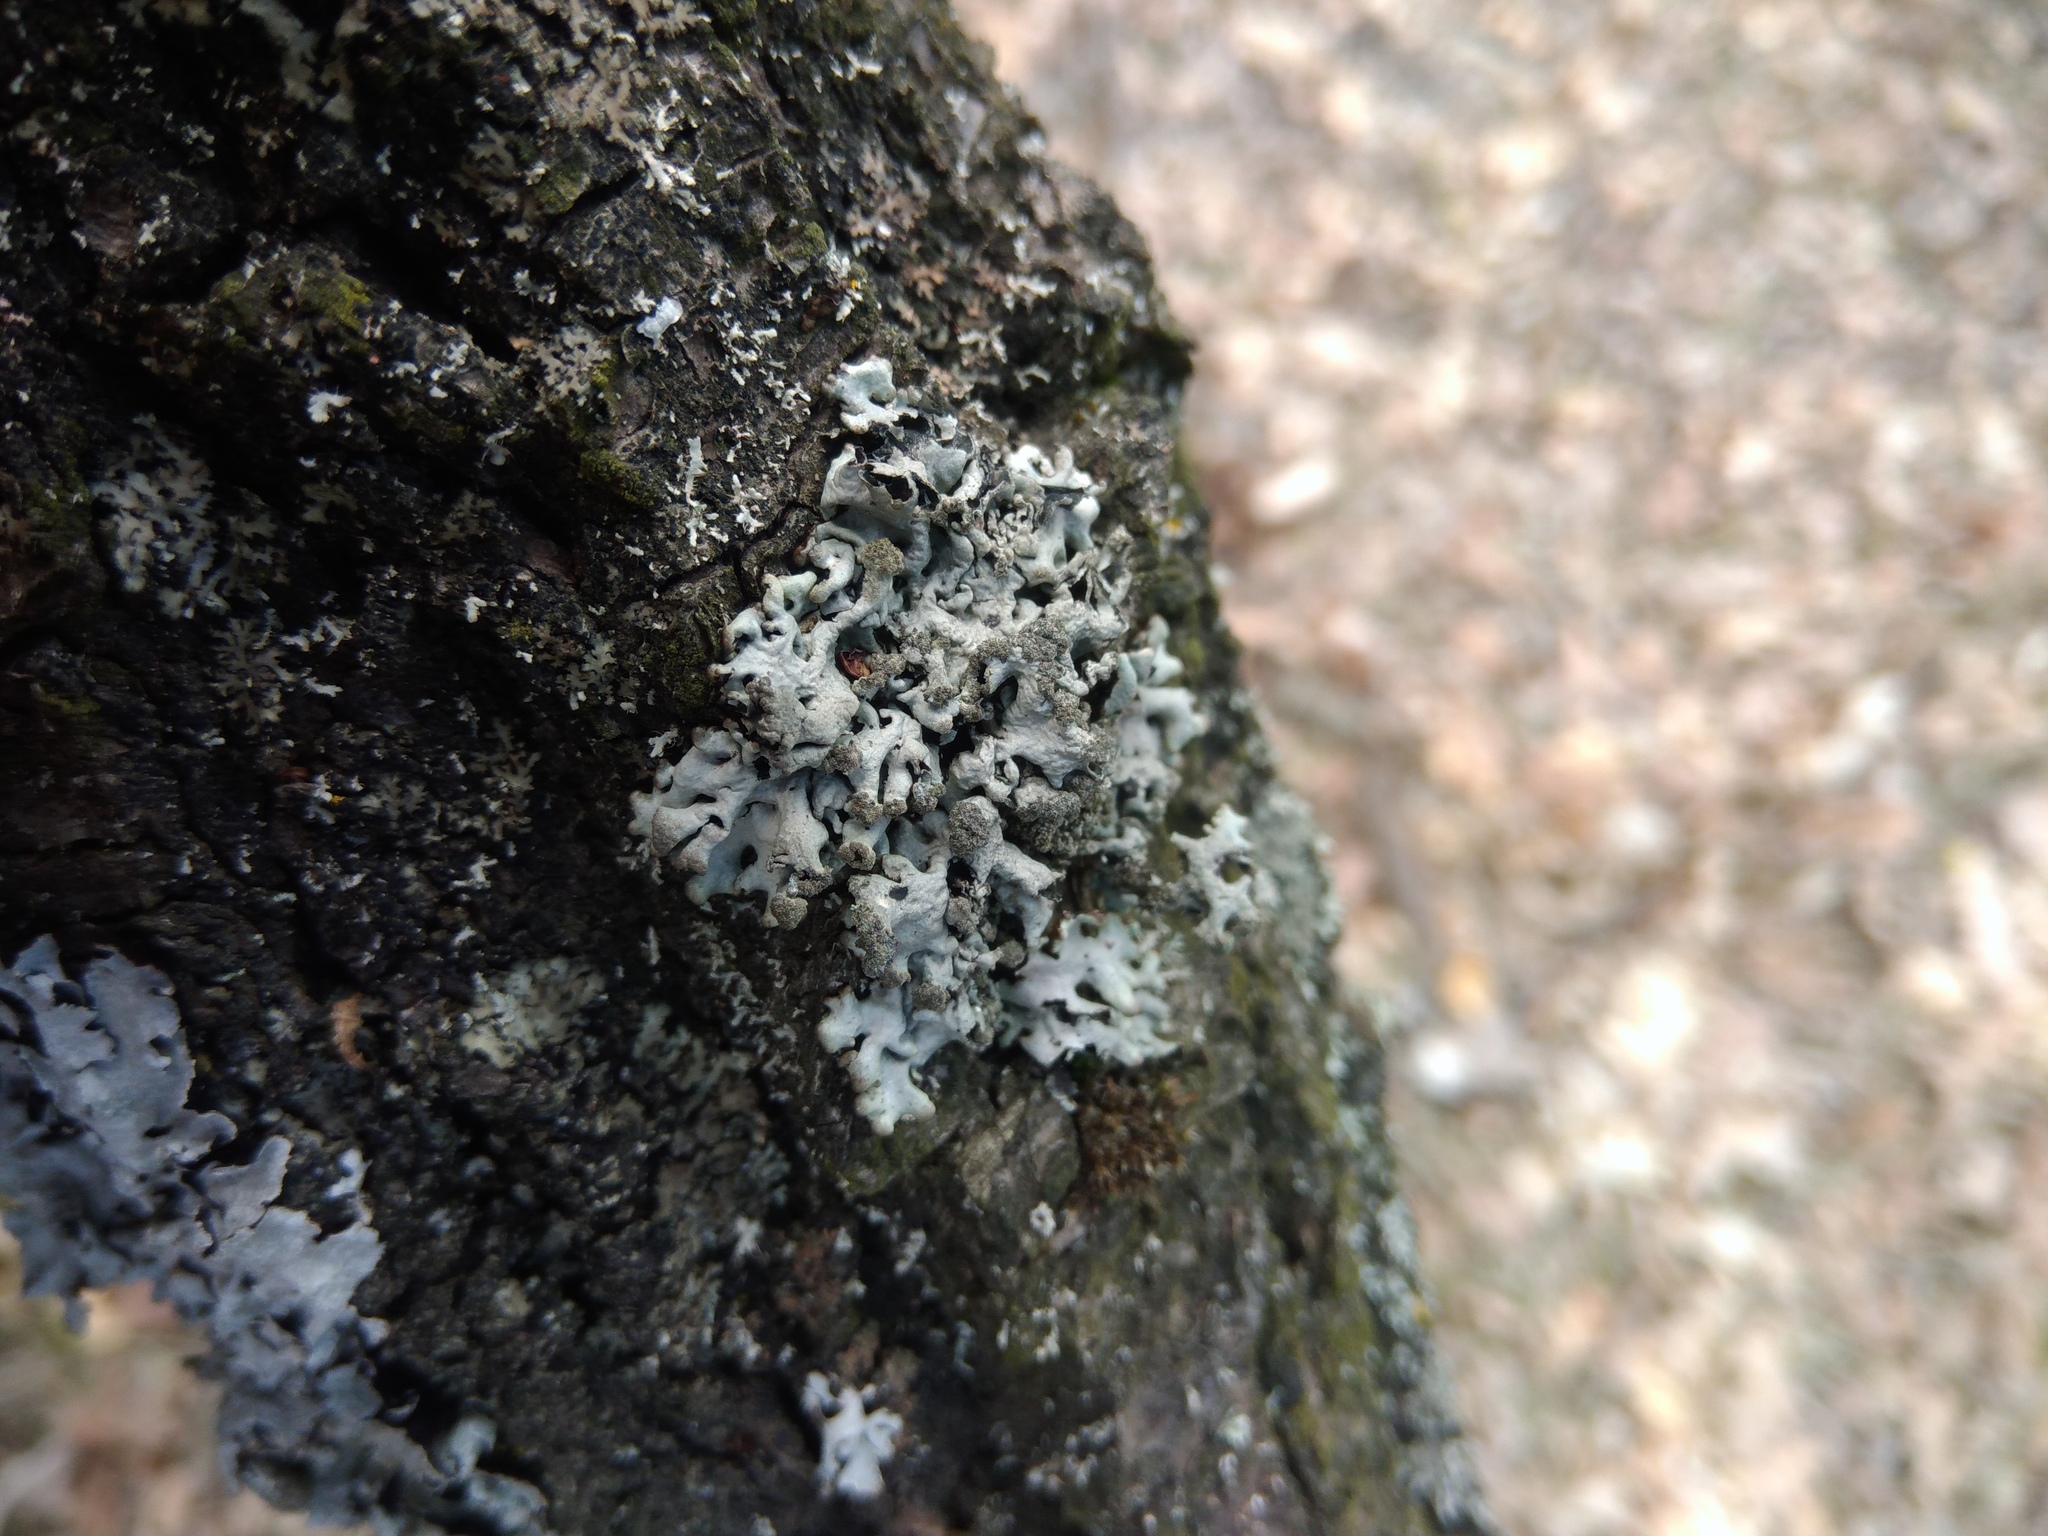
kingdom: Fungi
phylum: Ascomycota
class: Lecanoromycetes
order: Lecanorales
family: Parmeliaceae
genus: Hypogymnia
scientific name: Hypogymnia physodes
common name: Dark crottle
